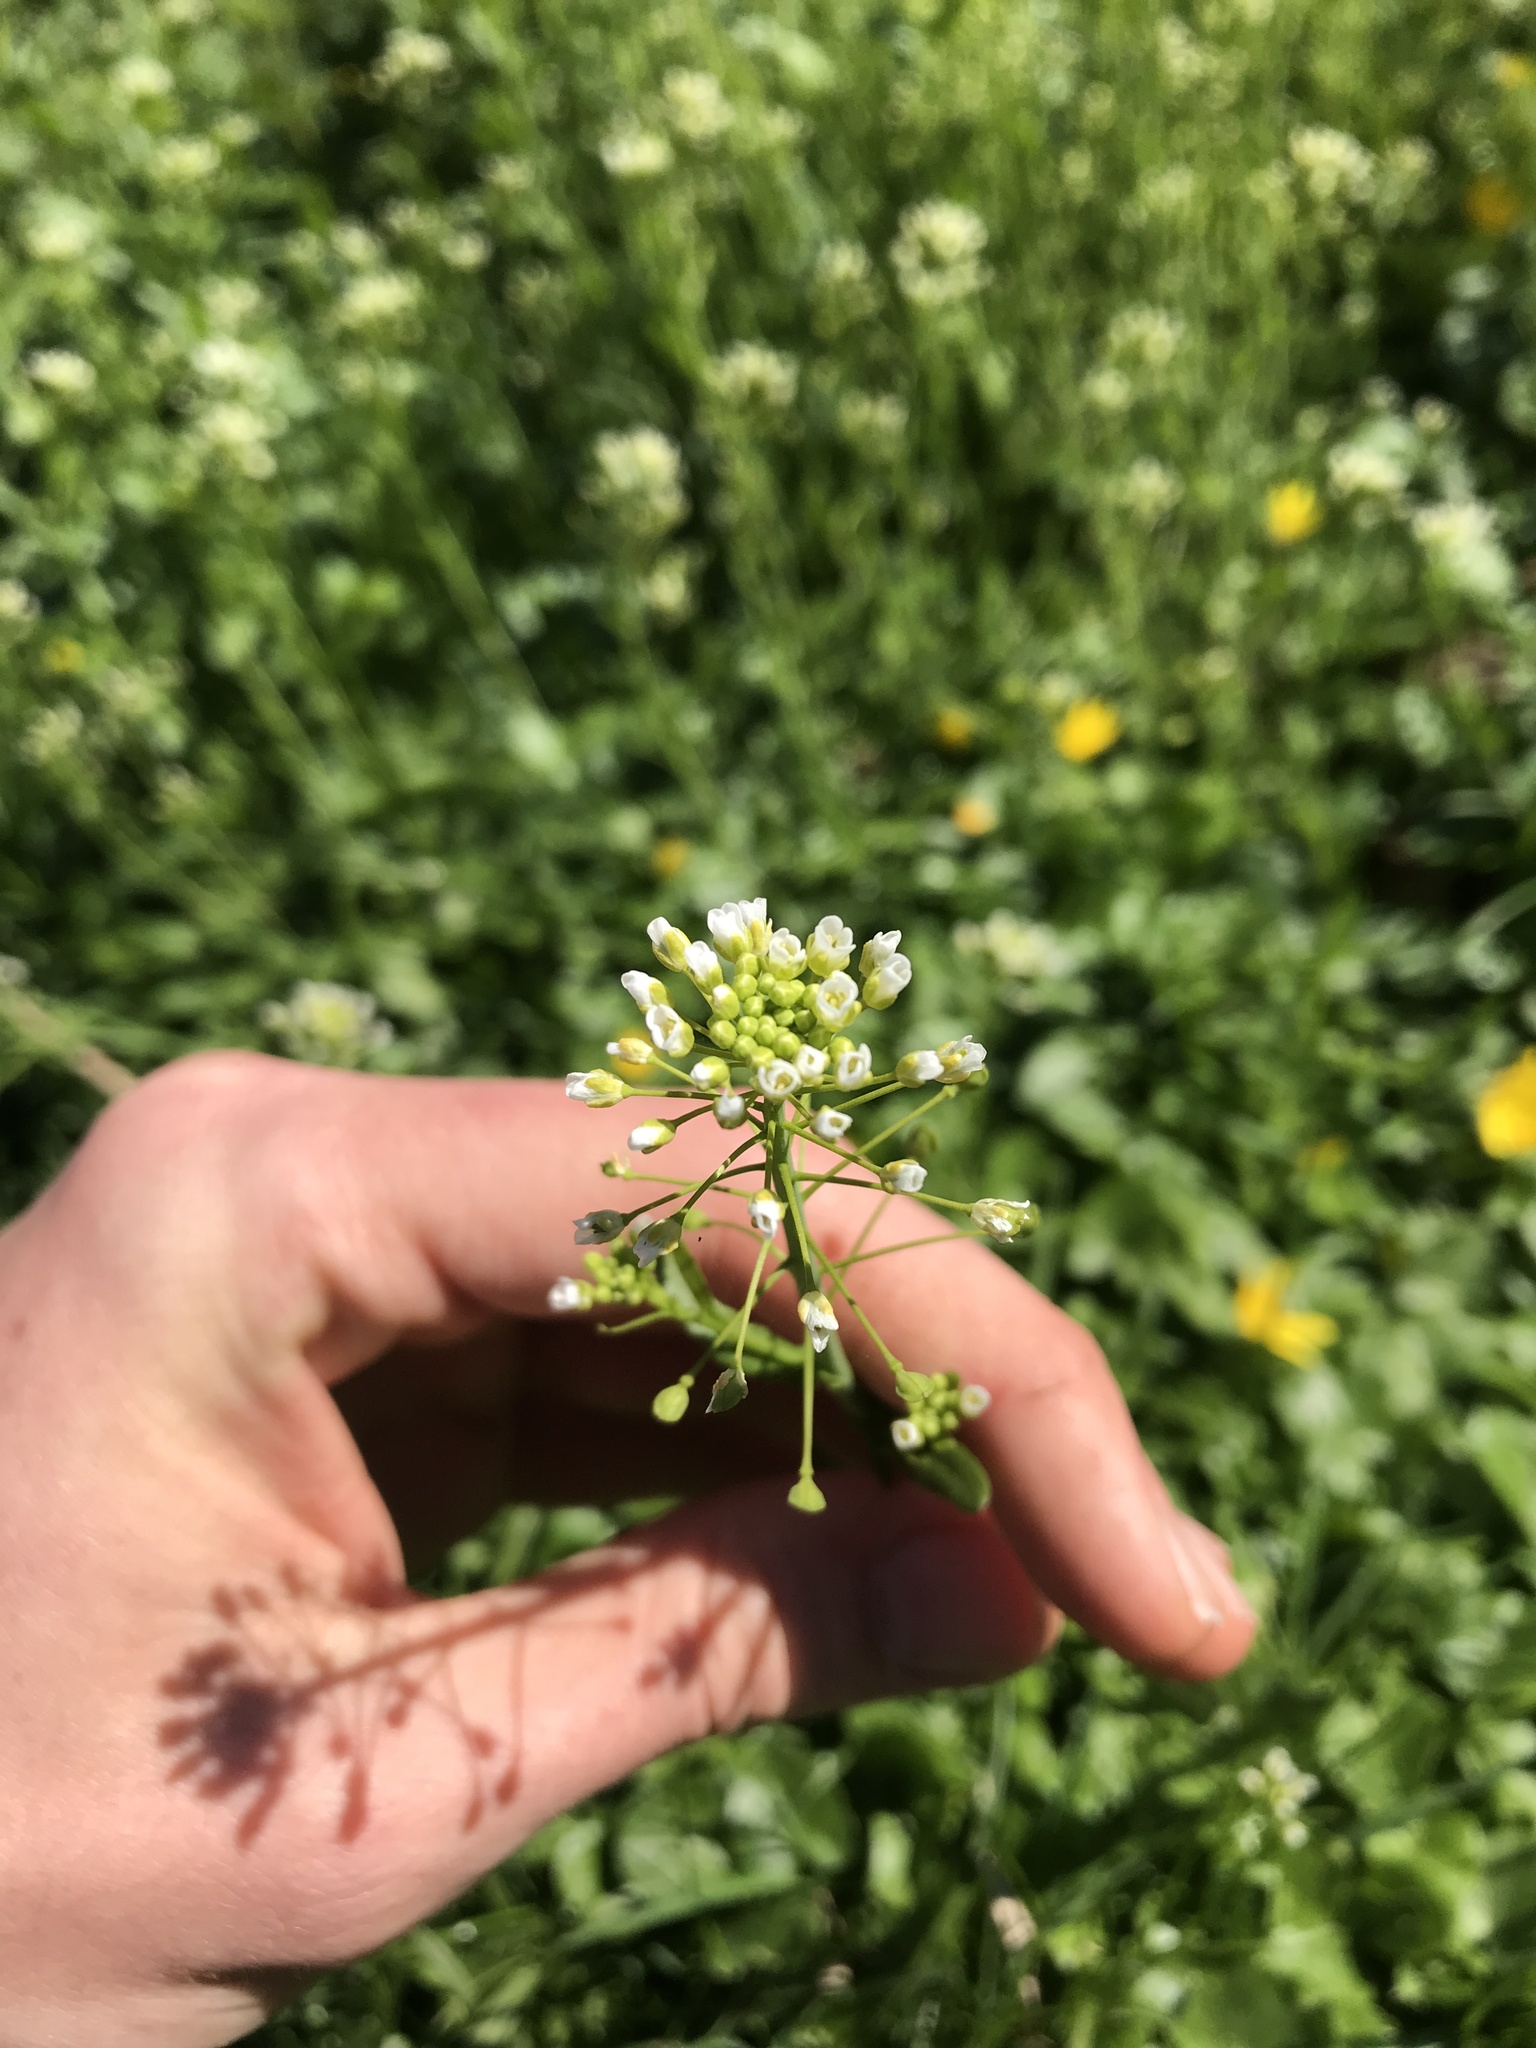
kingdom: Plantae
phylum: Tracheophyta
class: Magnoliopsida
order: Brassicales
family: Brassicaceae
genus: Mummenhoffia
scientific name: Mummenhoffia alliacea
